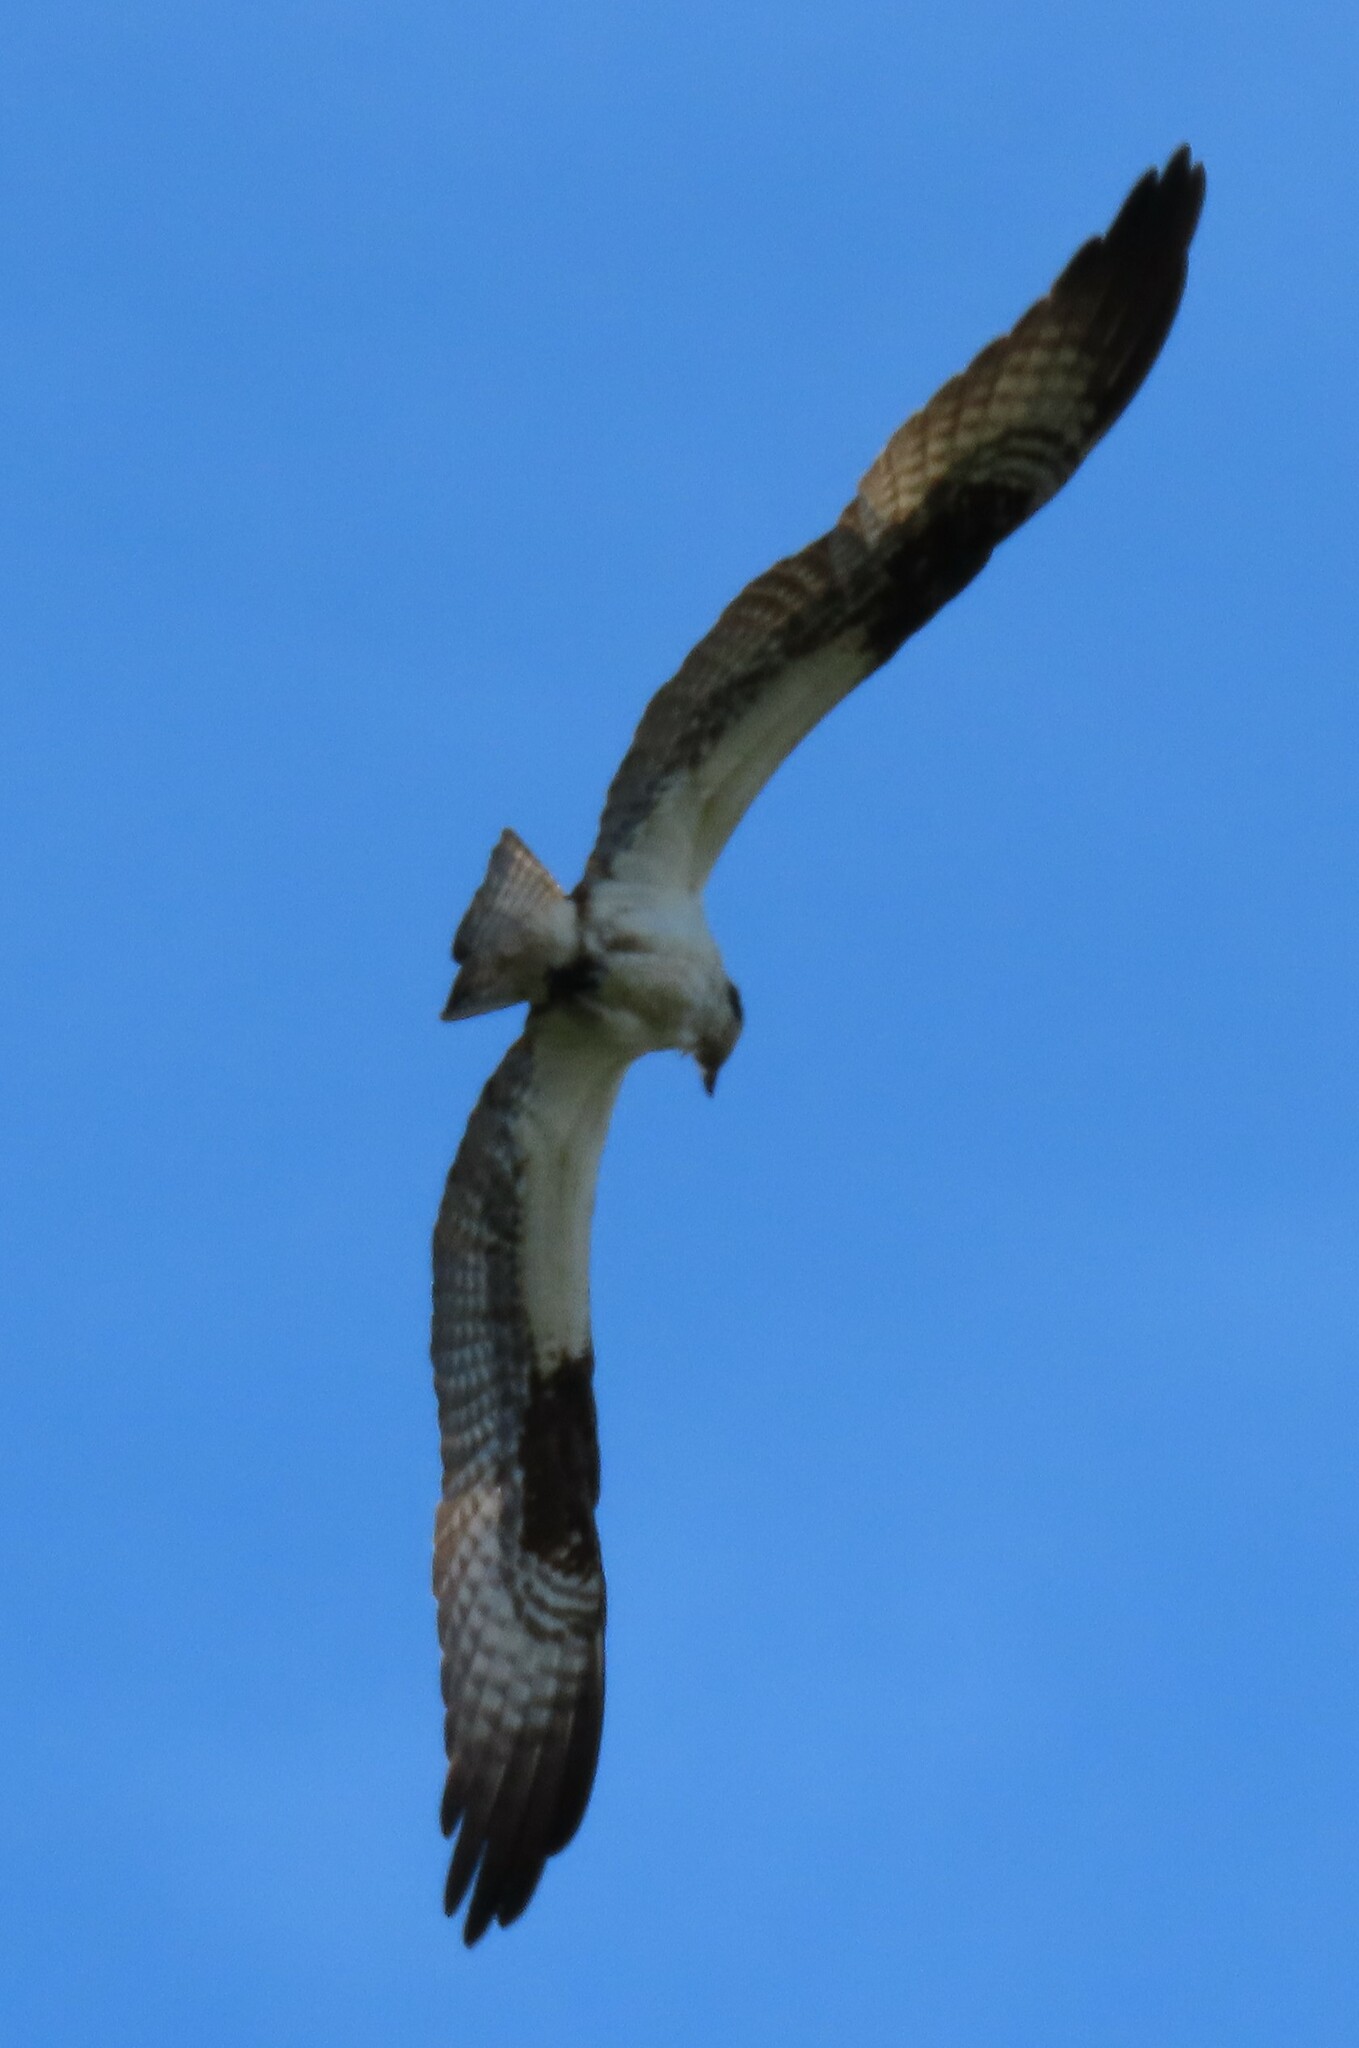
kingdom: Animalia
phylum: Chordata
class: Aves
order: Accipitriformes
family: Pandionidae
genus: Pandion
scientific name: Pandion haliaetus
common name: Osprey
